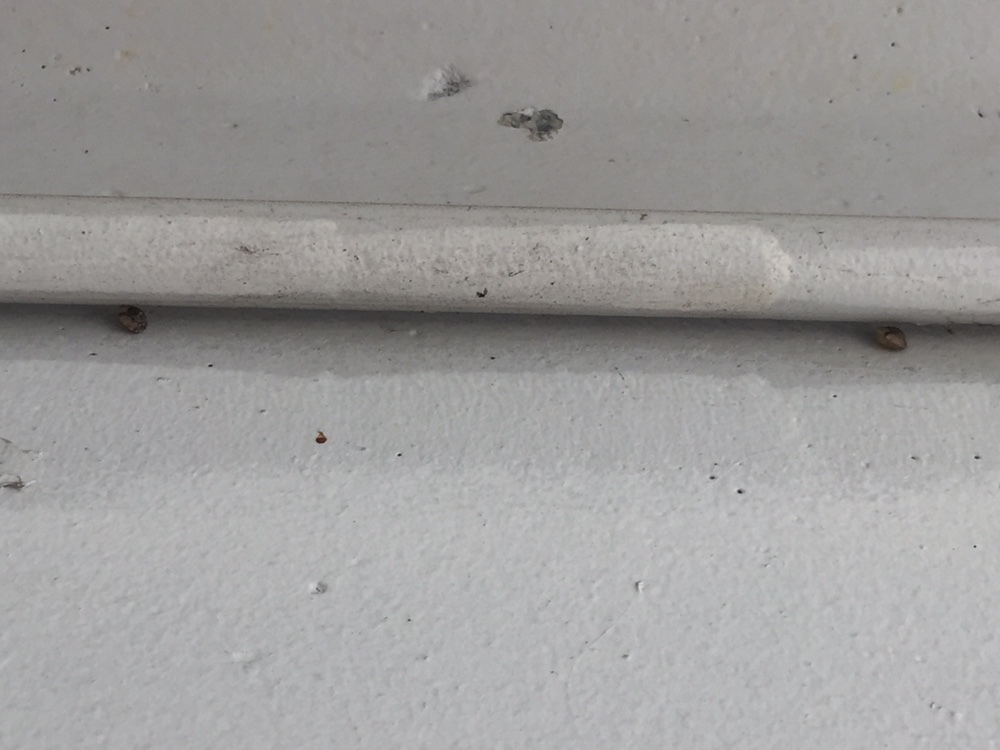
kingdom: Animalia
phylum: Mollusca
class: Gastropoda
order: Stylommatophora
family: Hygromiidae
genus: Hygromia
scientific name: Hygromia cinctella
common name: Girdled snail
